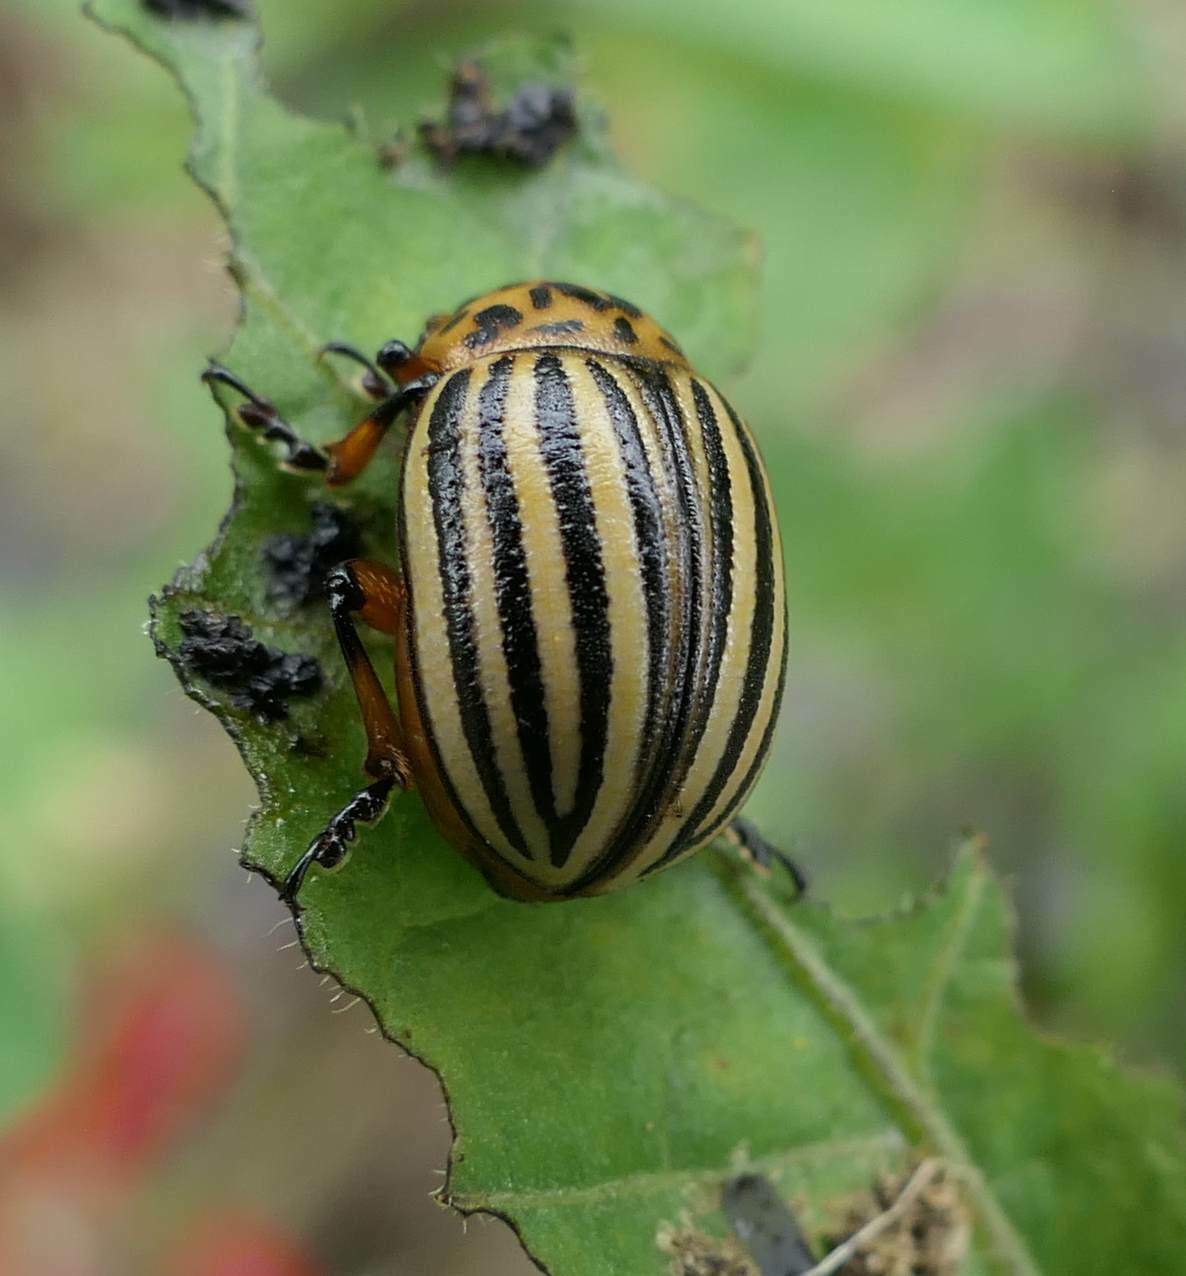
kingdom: Animalia
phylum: Arthropoda
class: Insecta
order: Coleoptera
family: Chrysomelidae
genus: Leptinotarsa
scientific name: Leptinotarsa decemlineata
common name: Colorado potato beetle
